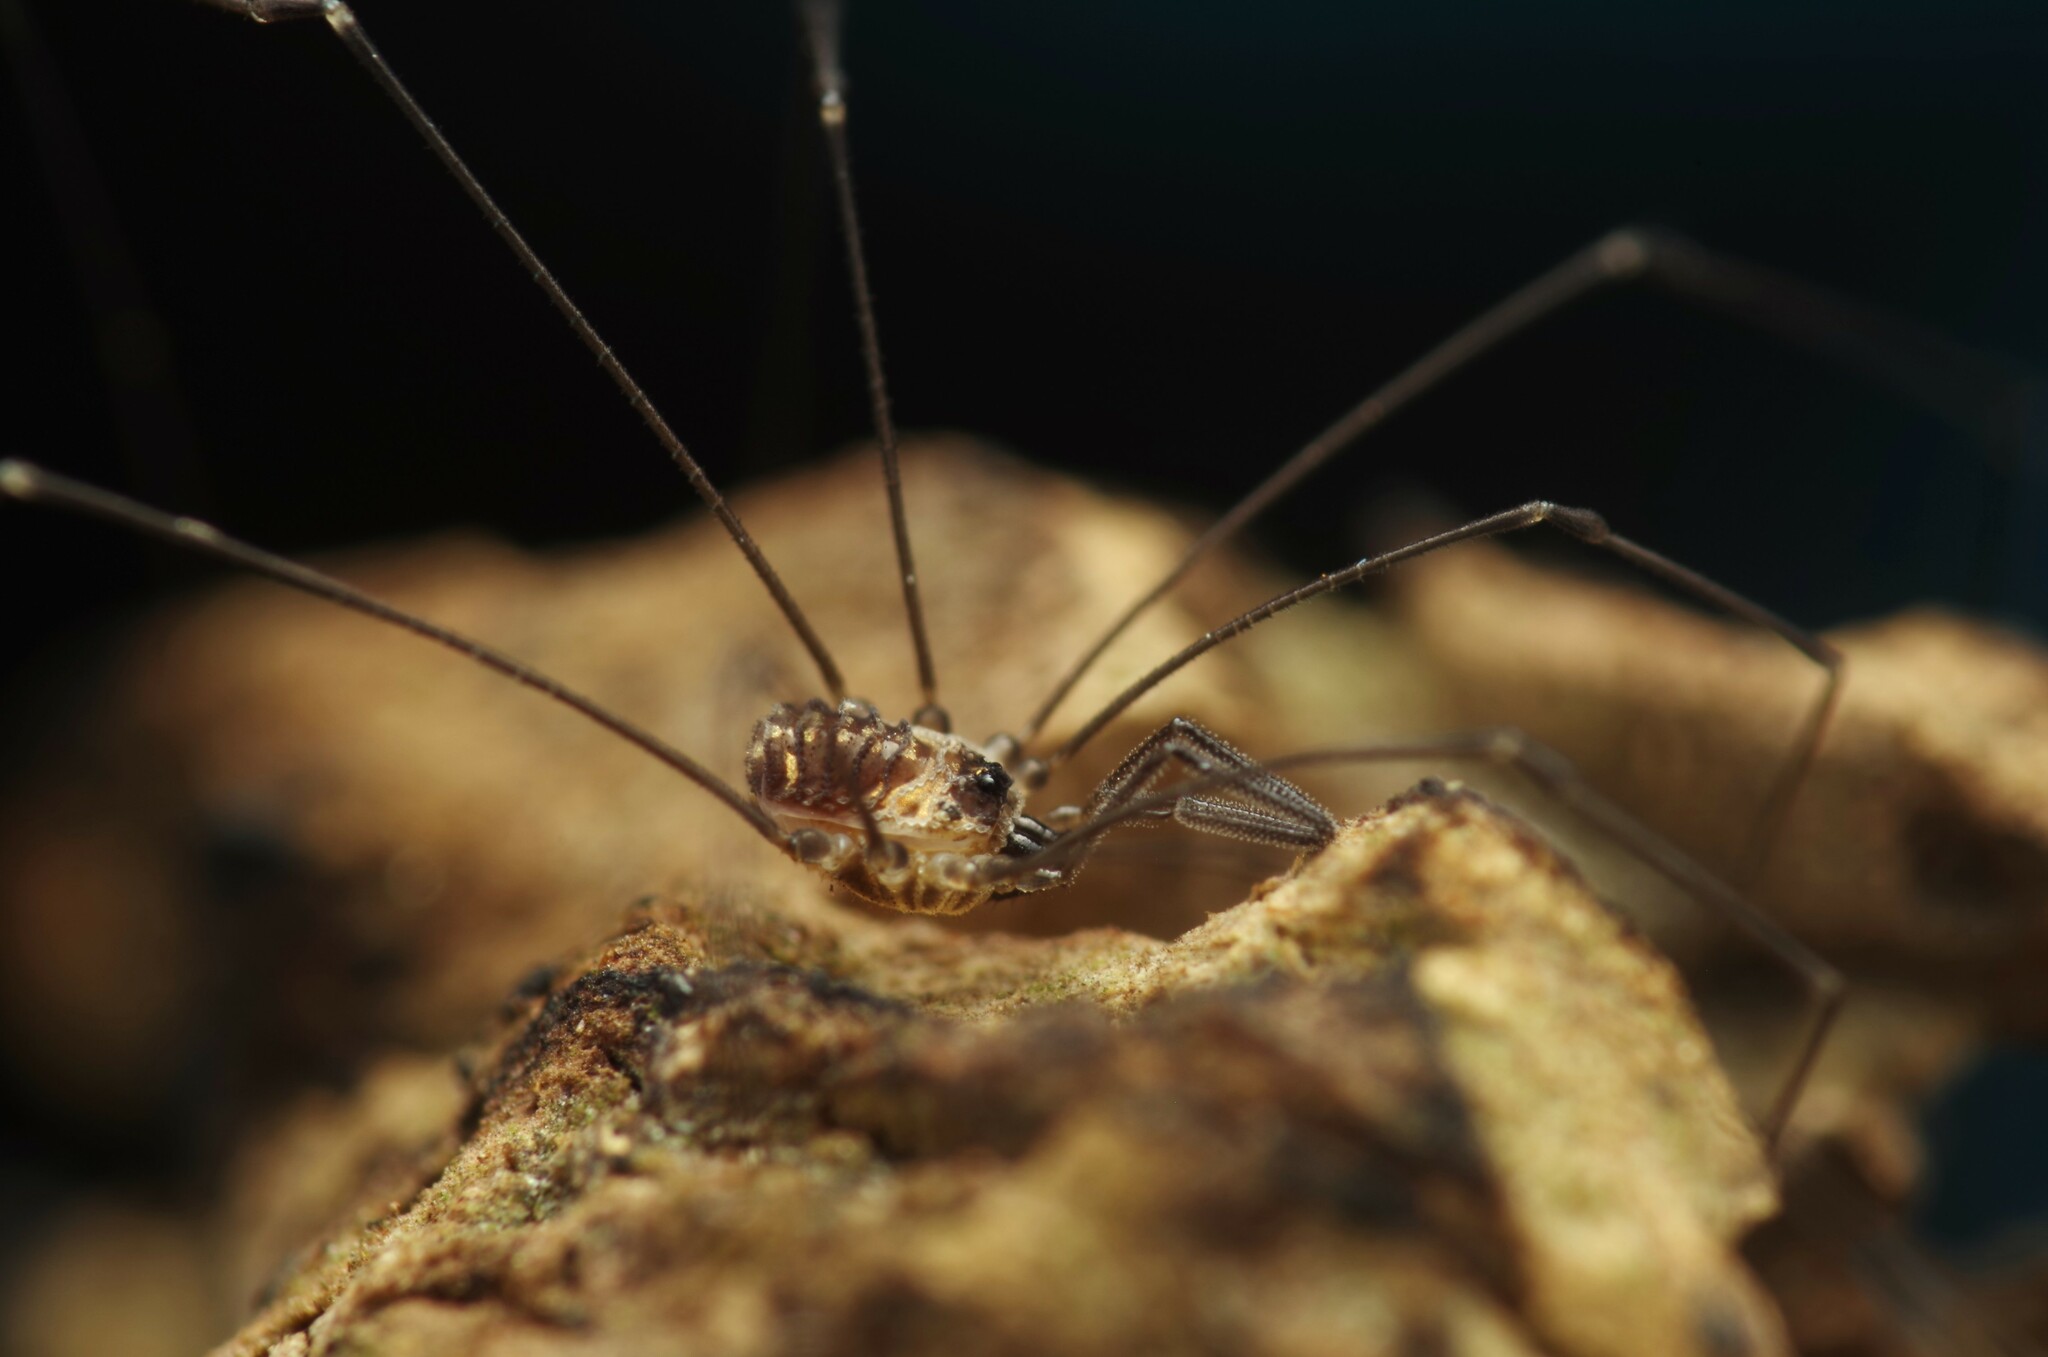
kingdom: Animalia
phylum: Arthropoda
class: Arachnida
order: Opiliones
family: Nemastomatidae
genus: Mitostoma
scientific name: Mitostoma chrysomelas
